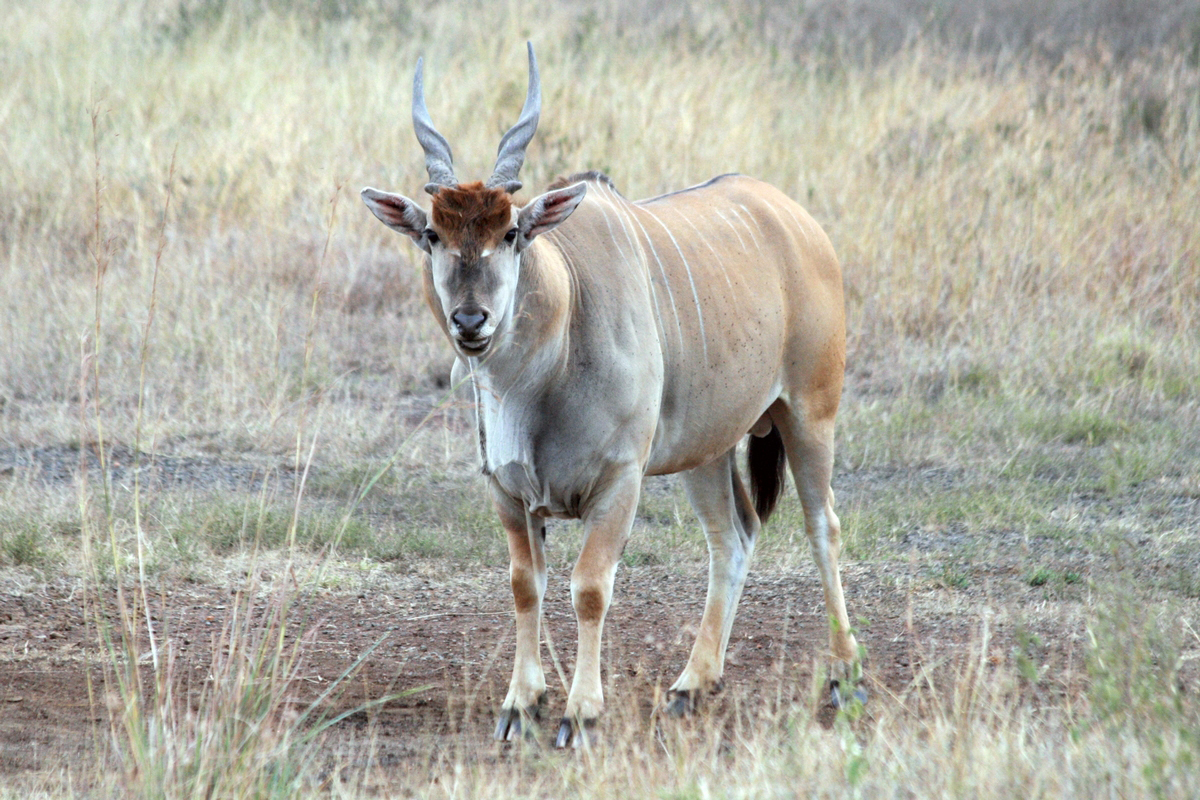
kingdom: Animalia
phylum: Chordata
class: Mammalia
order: Artiodactyla
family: Bovidae
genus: Taurotragus
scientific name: Taurotragus oryx
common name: Common eland
